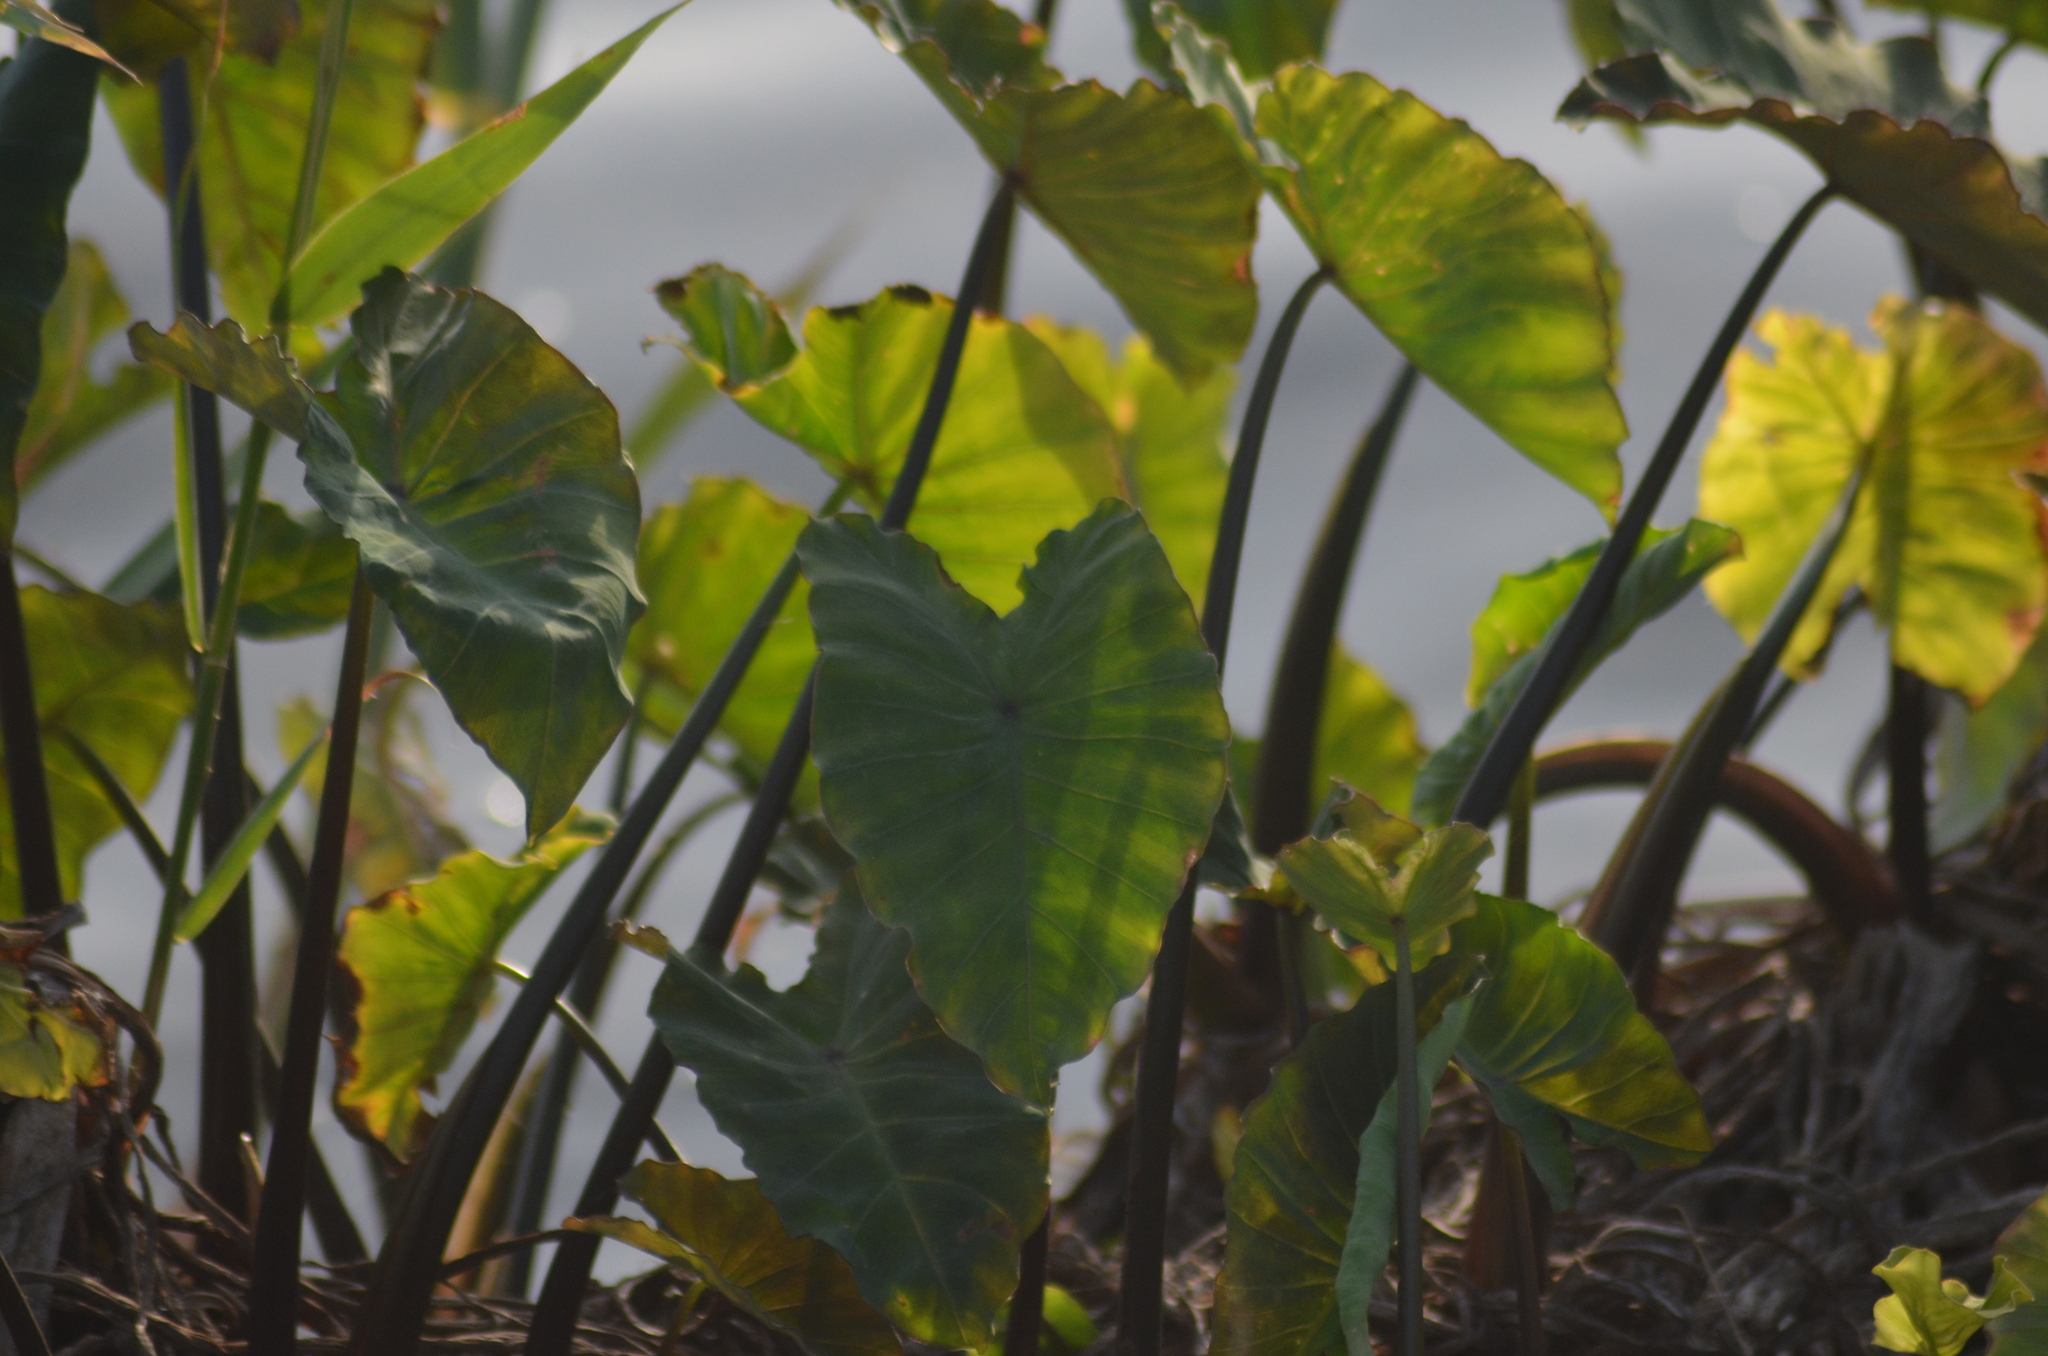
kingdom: Plantae
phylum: Tracheophyta
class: Liliopsida
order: Alismatales
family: Araceae
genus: Colocasia
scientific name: Colocasia esculenta
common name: Taro
